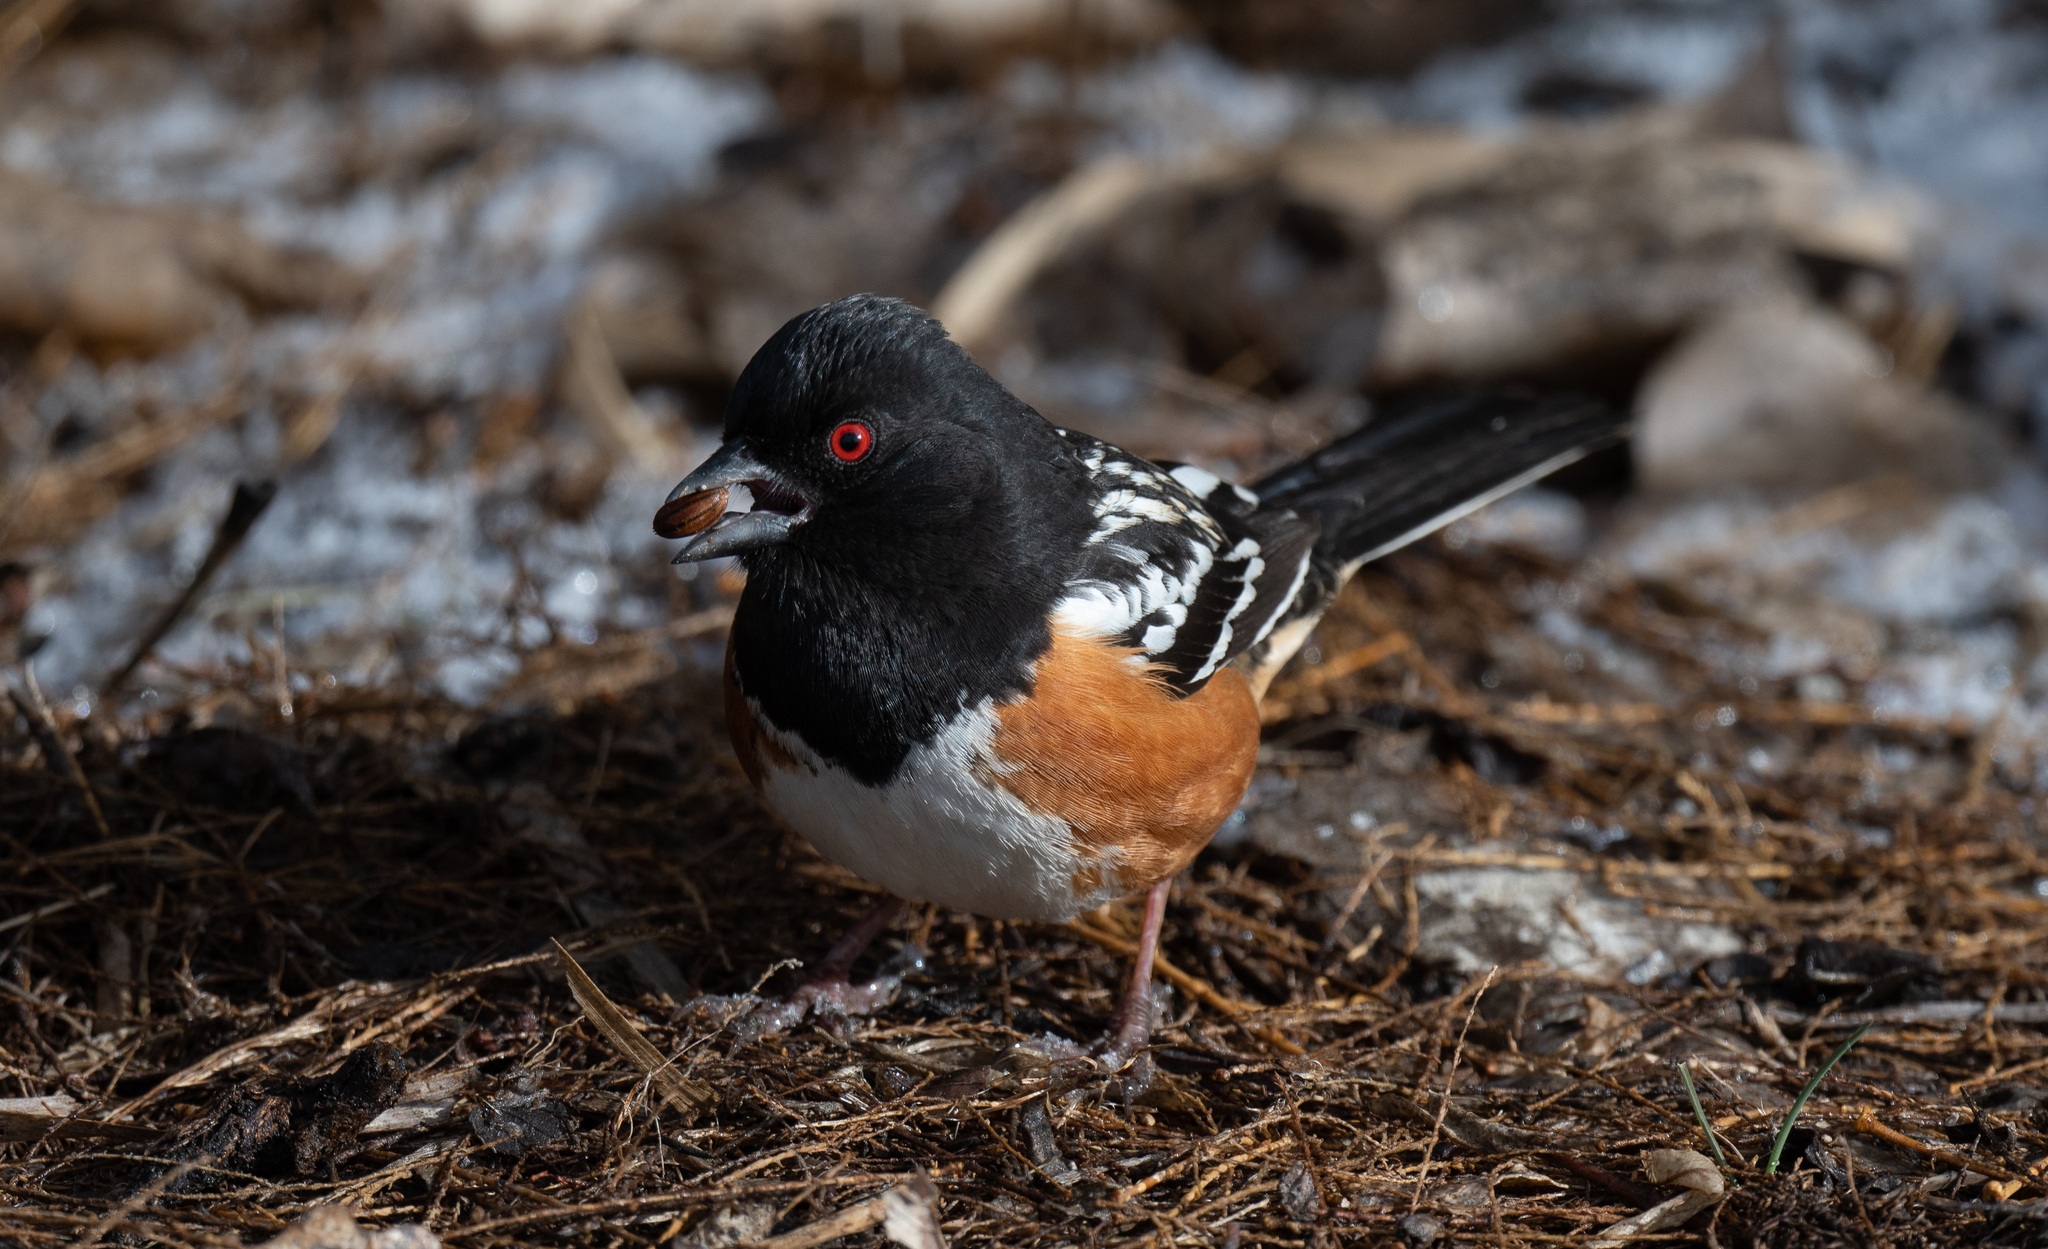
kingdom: Animalia
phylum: Chordata
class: Aves
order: Passeriformes
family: Passerellidae
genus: Pipilo
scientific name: Pipilo maculatus
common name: Spotted towhee
